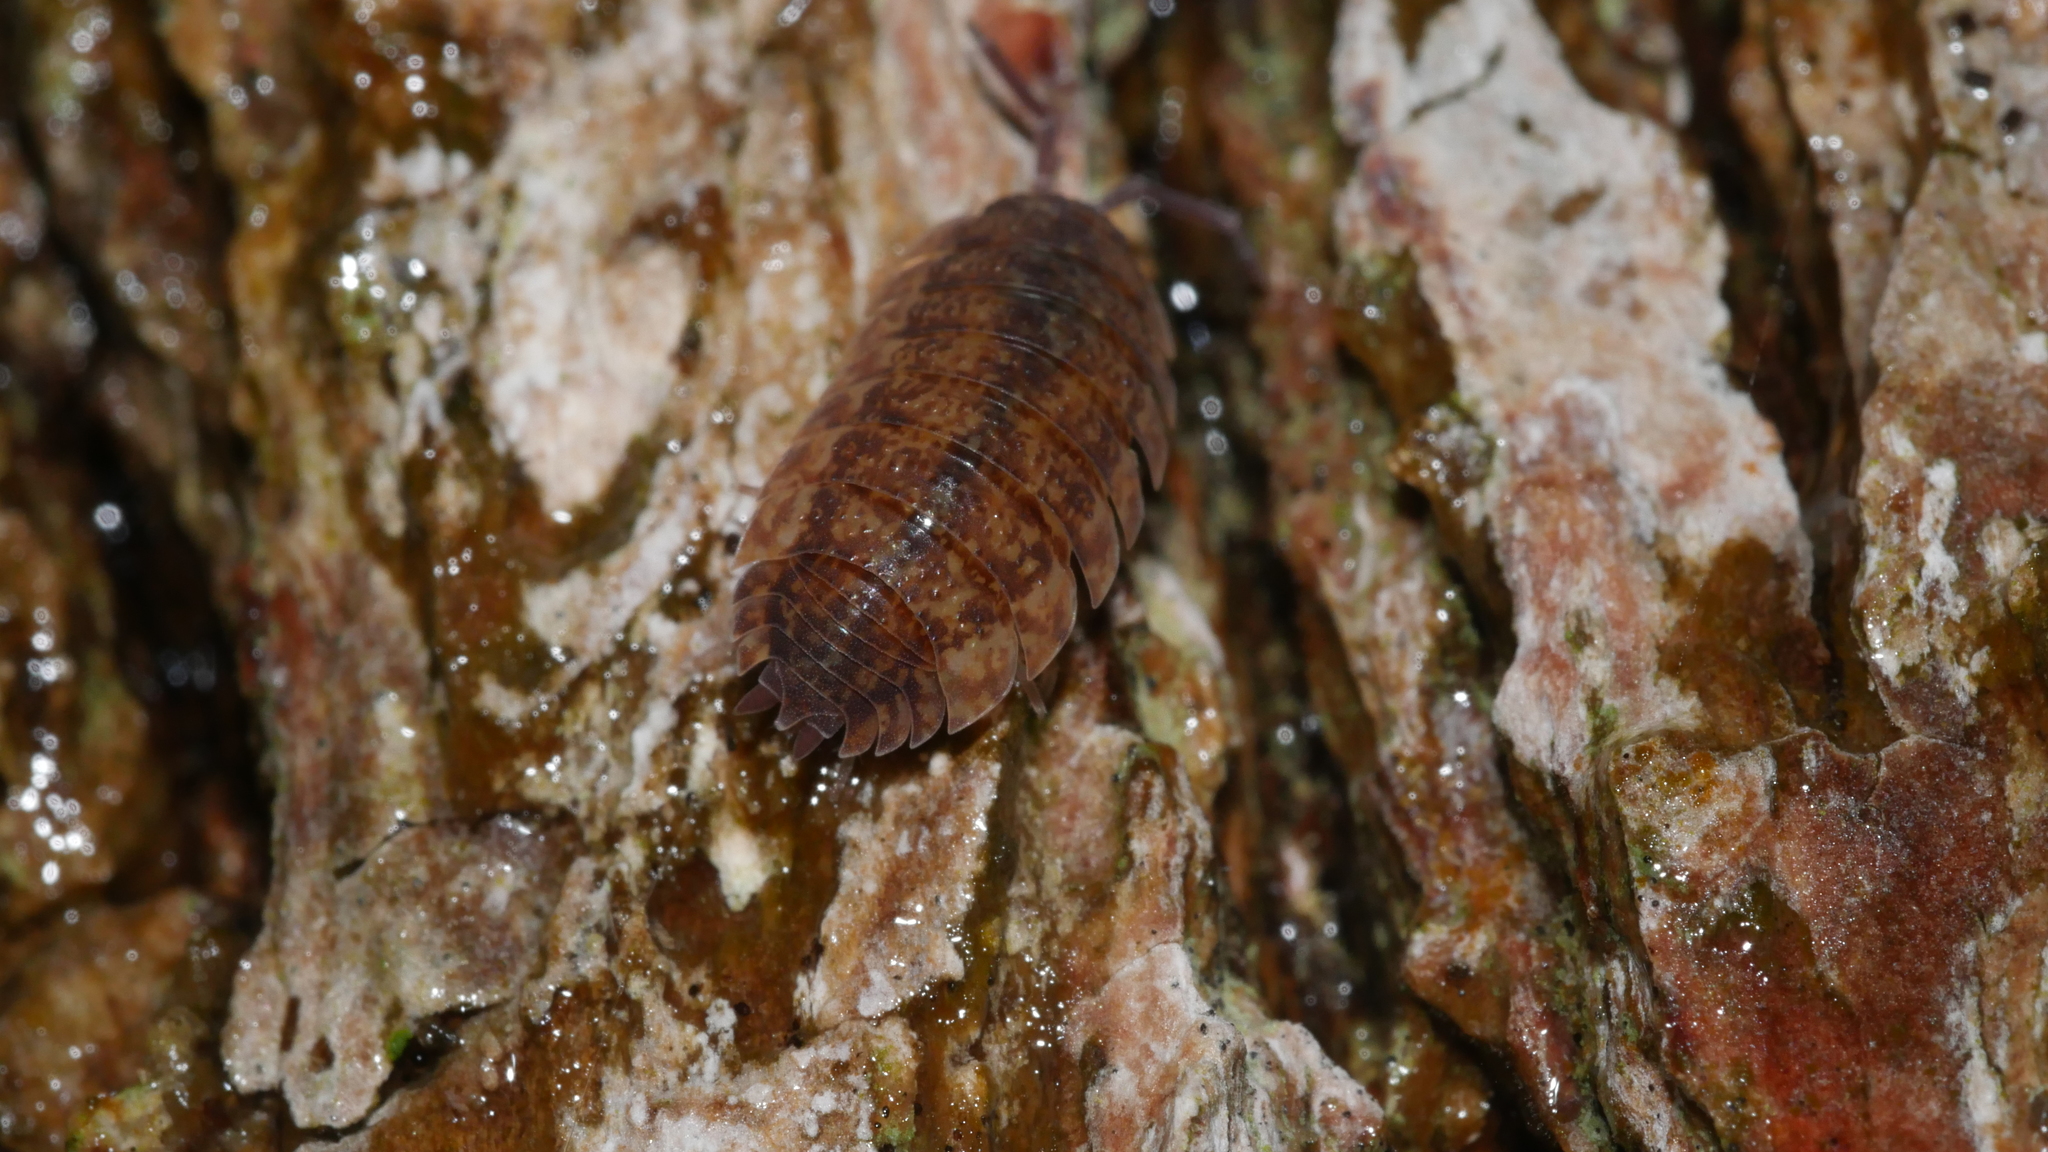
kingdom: Animalia
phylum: Arthropoda
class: Malacostraca
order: Isopoda
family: Porcellionidae
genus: Porcellio
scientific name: Porcellio scaber
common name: Common rough woodlouse
